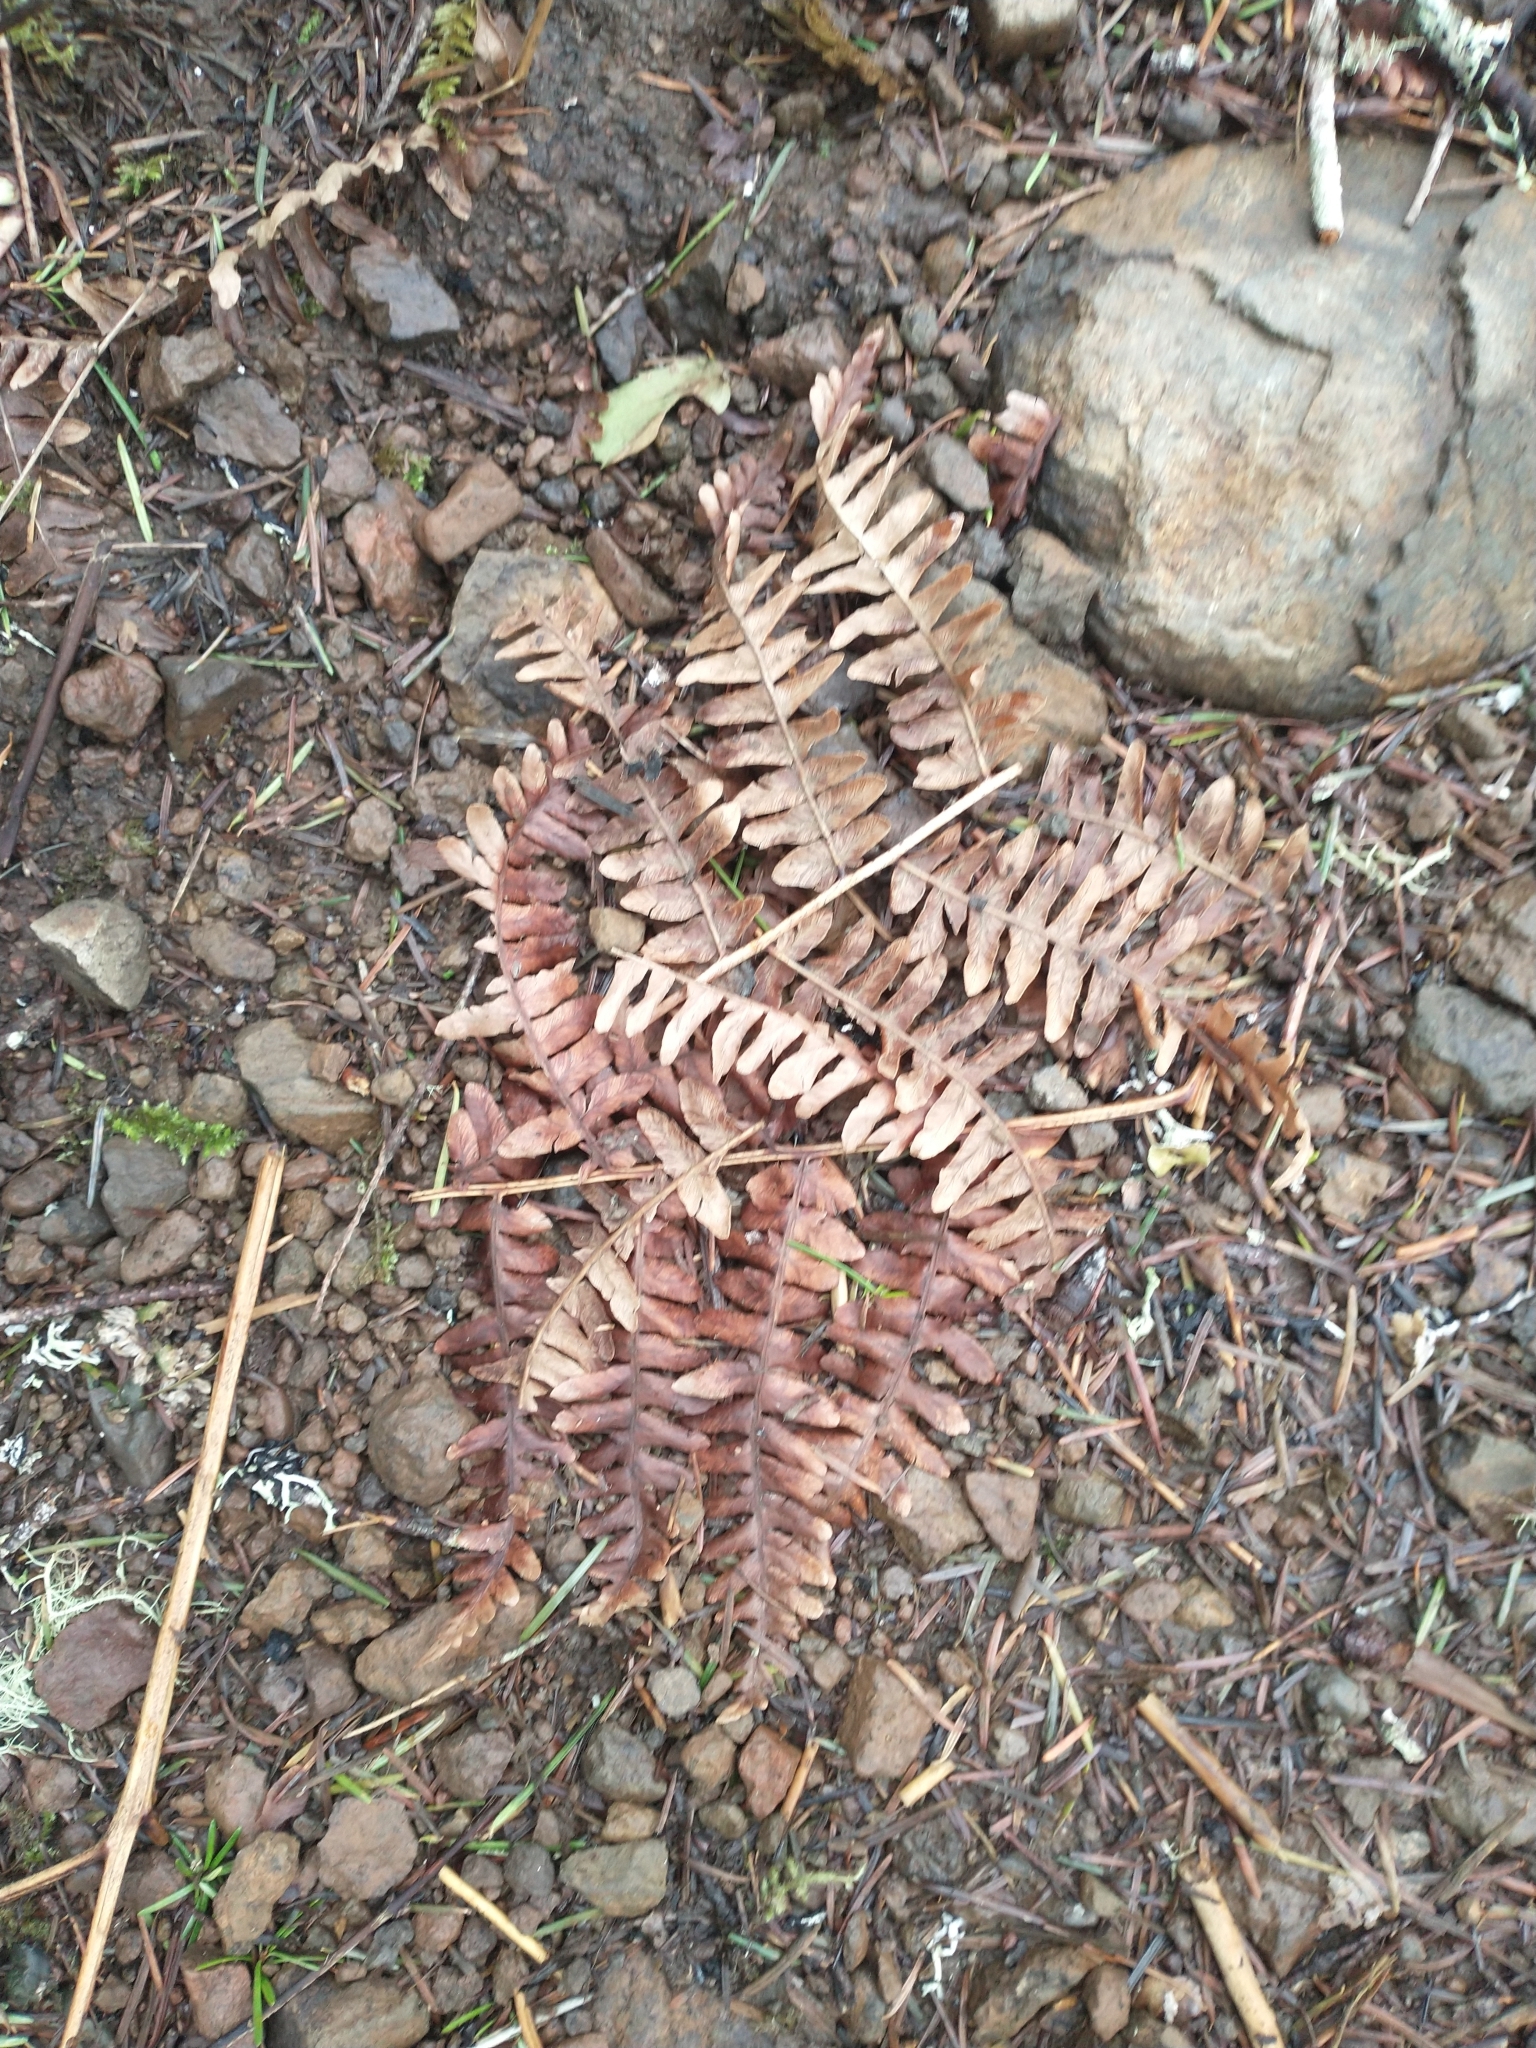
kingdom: Plantae
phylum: Tracheophyta
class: Polypodiopsida
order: Polypodiales
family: Dennstaedtiaceae
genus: Pteridium
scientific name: Pteridium aquilinum
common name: Bracken
